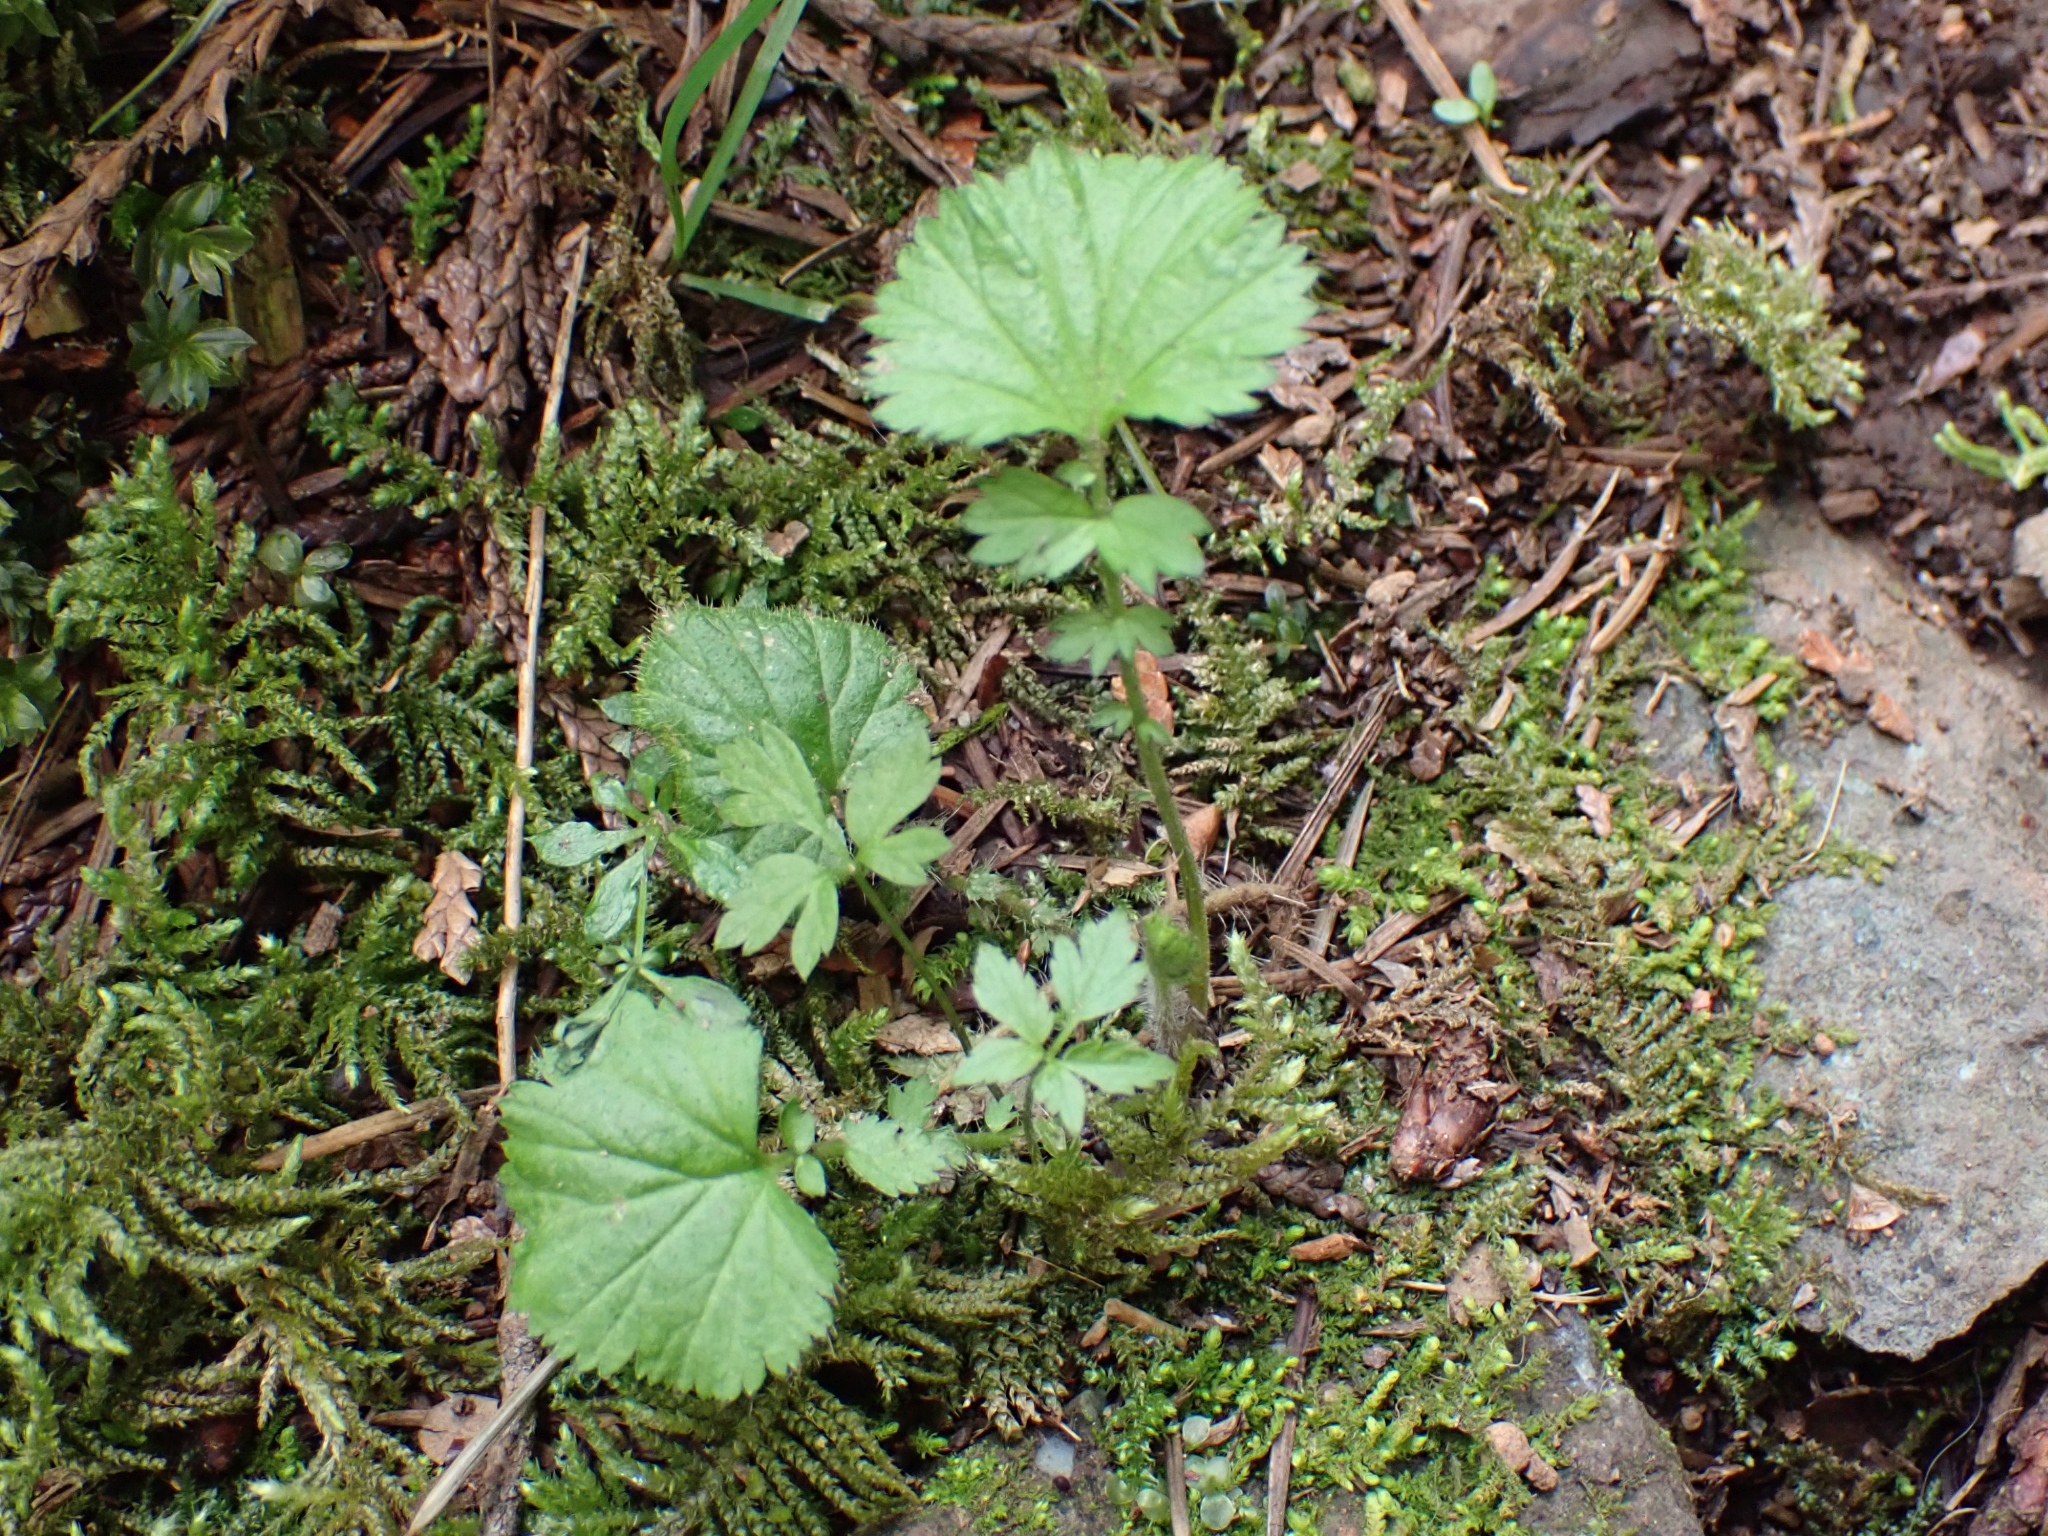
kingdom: Plantae
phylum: Tracheophyta
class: Magnoliopsida
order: Rosales
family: Rosaceae
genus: Geum
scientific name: Geum macrophyllum
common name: Large-leaved avens
